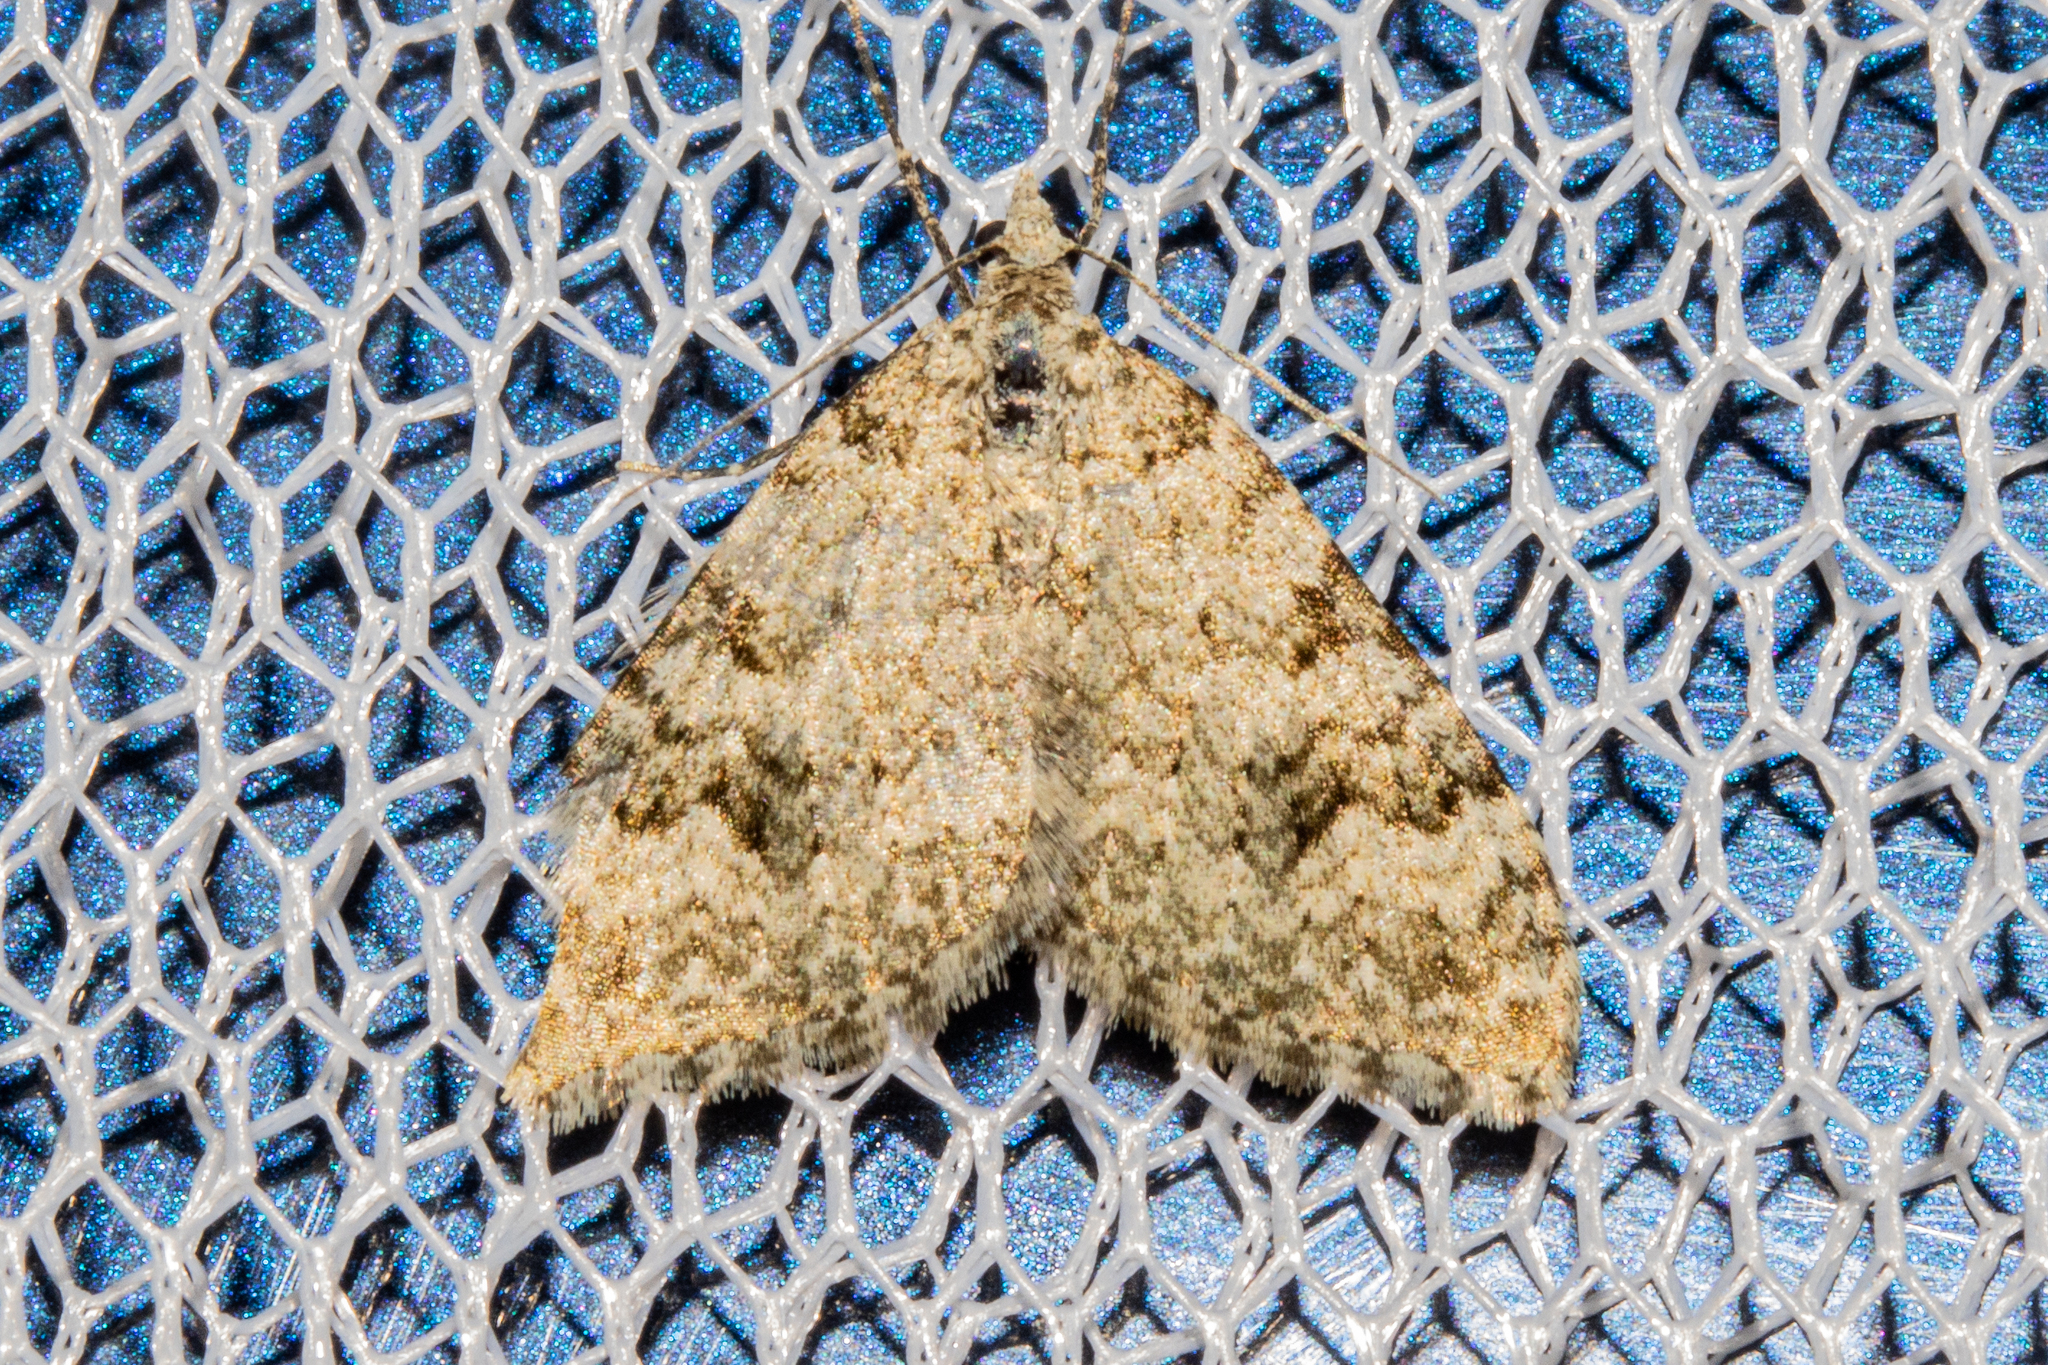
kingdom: Animalia
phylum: Arthropoda
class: Insecta
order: Lepidoptera
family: Geometridae
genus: Helastia
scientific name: Helastia cinerearia
